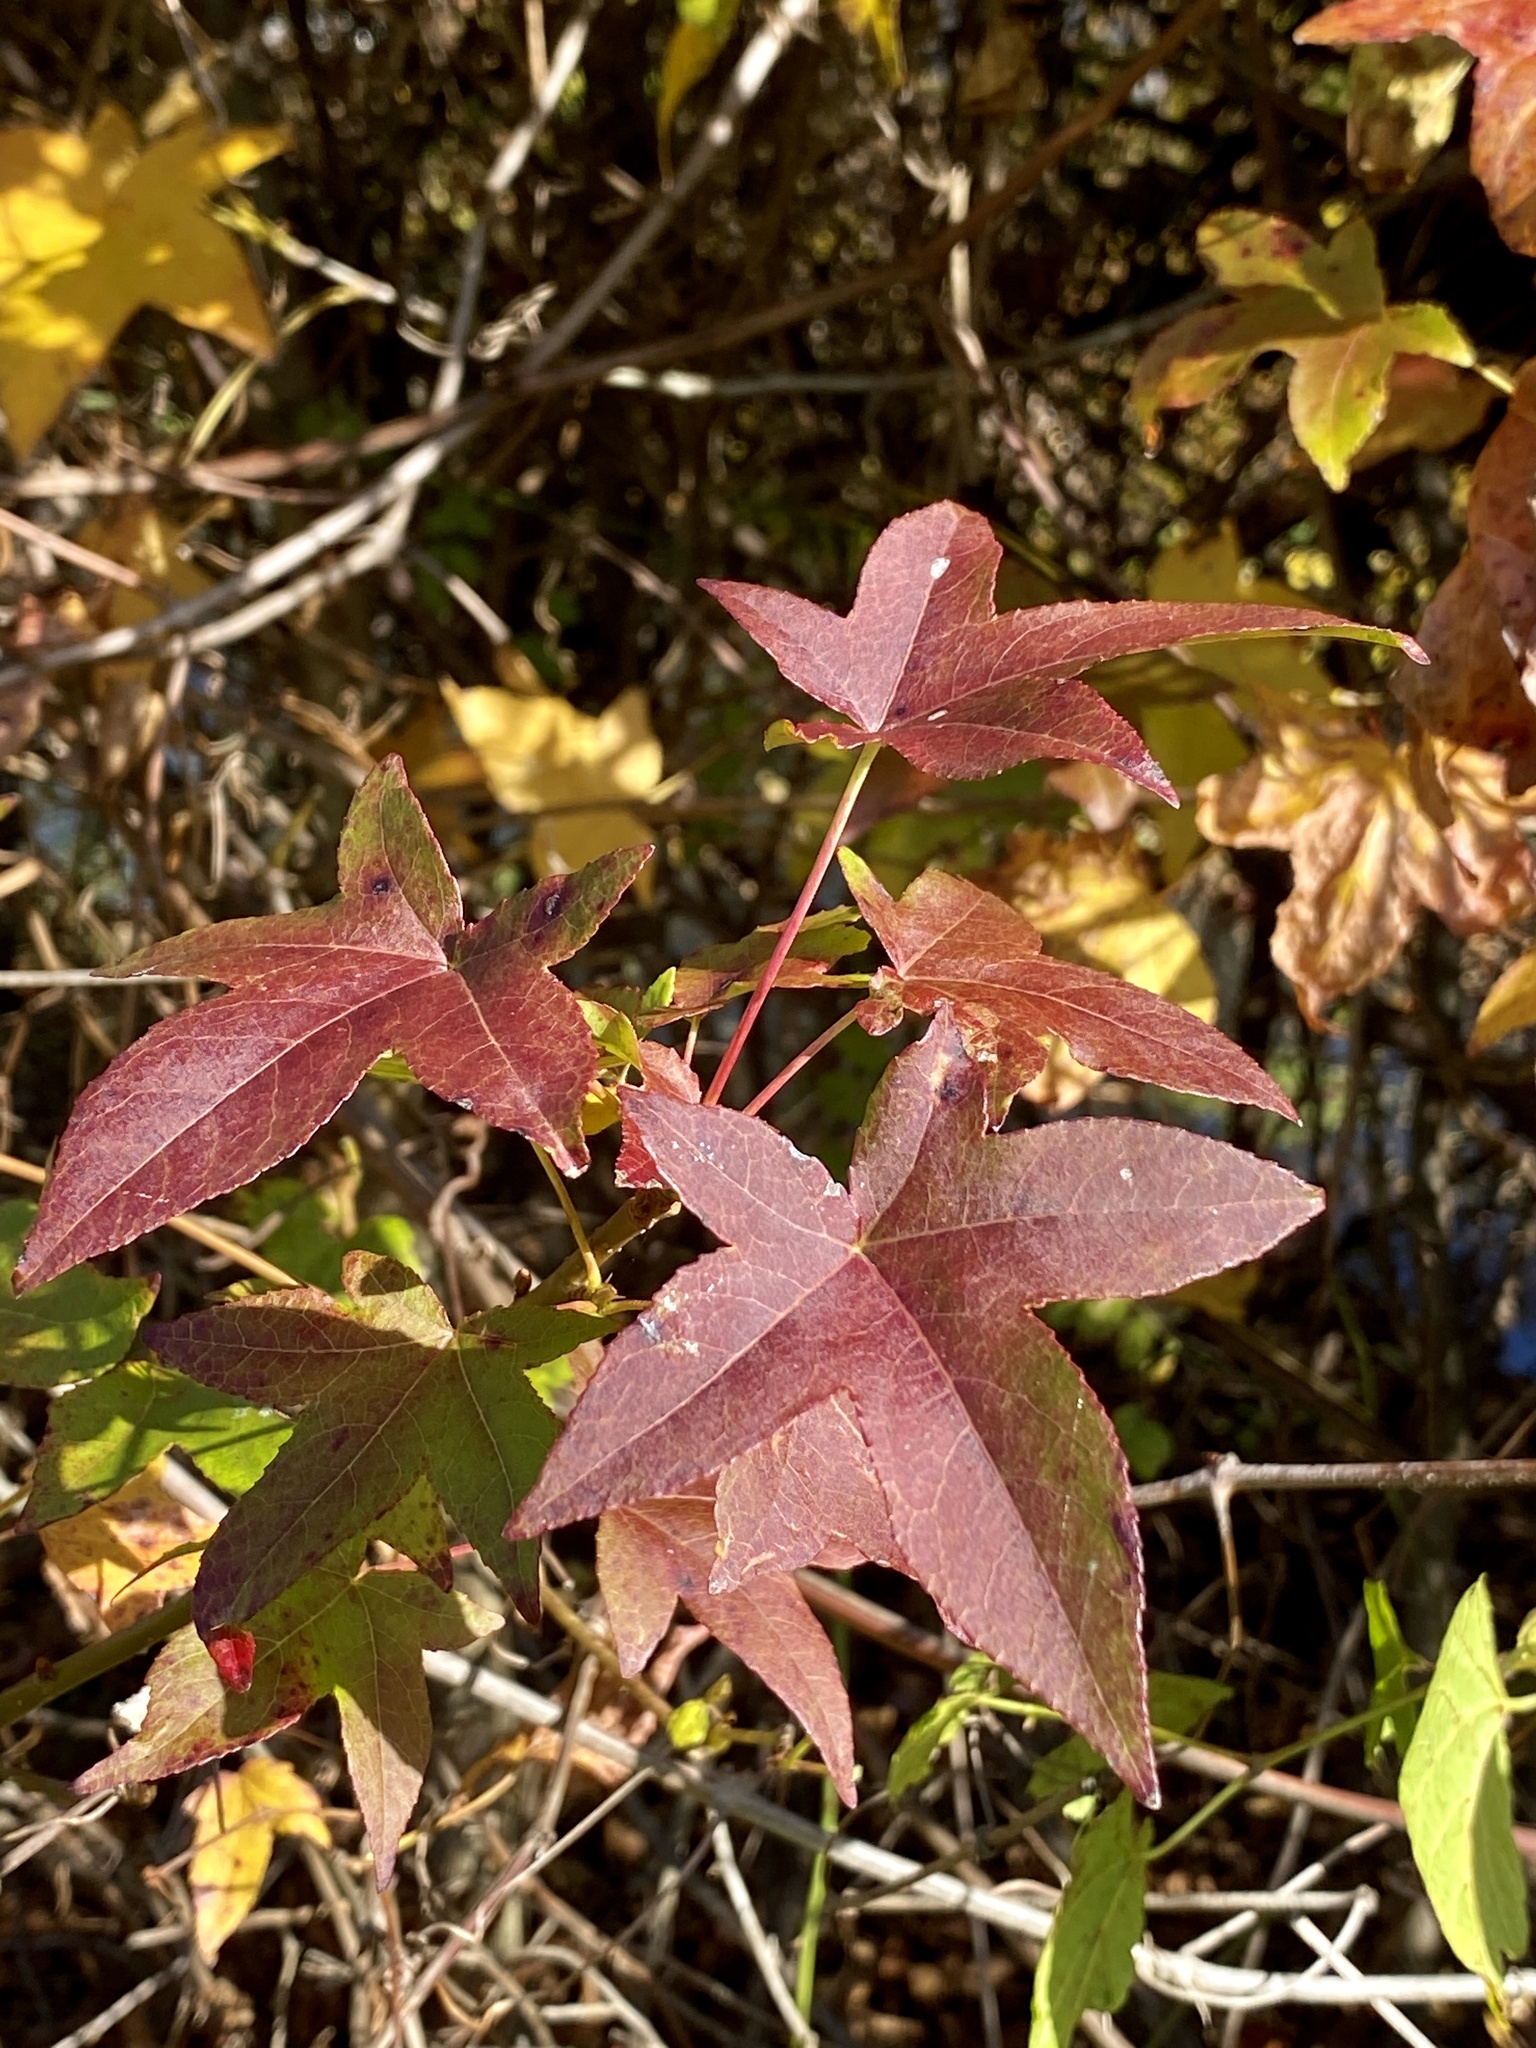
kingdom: Plantae
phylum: Tracheophyta
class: Magnoliopsida
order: Saxifragales
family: Altingiaceae
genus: Liquidambar
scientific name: Liquidambar styraciflua
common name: Sweet gum
